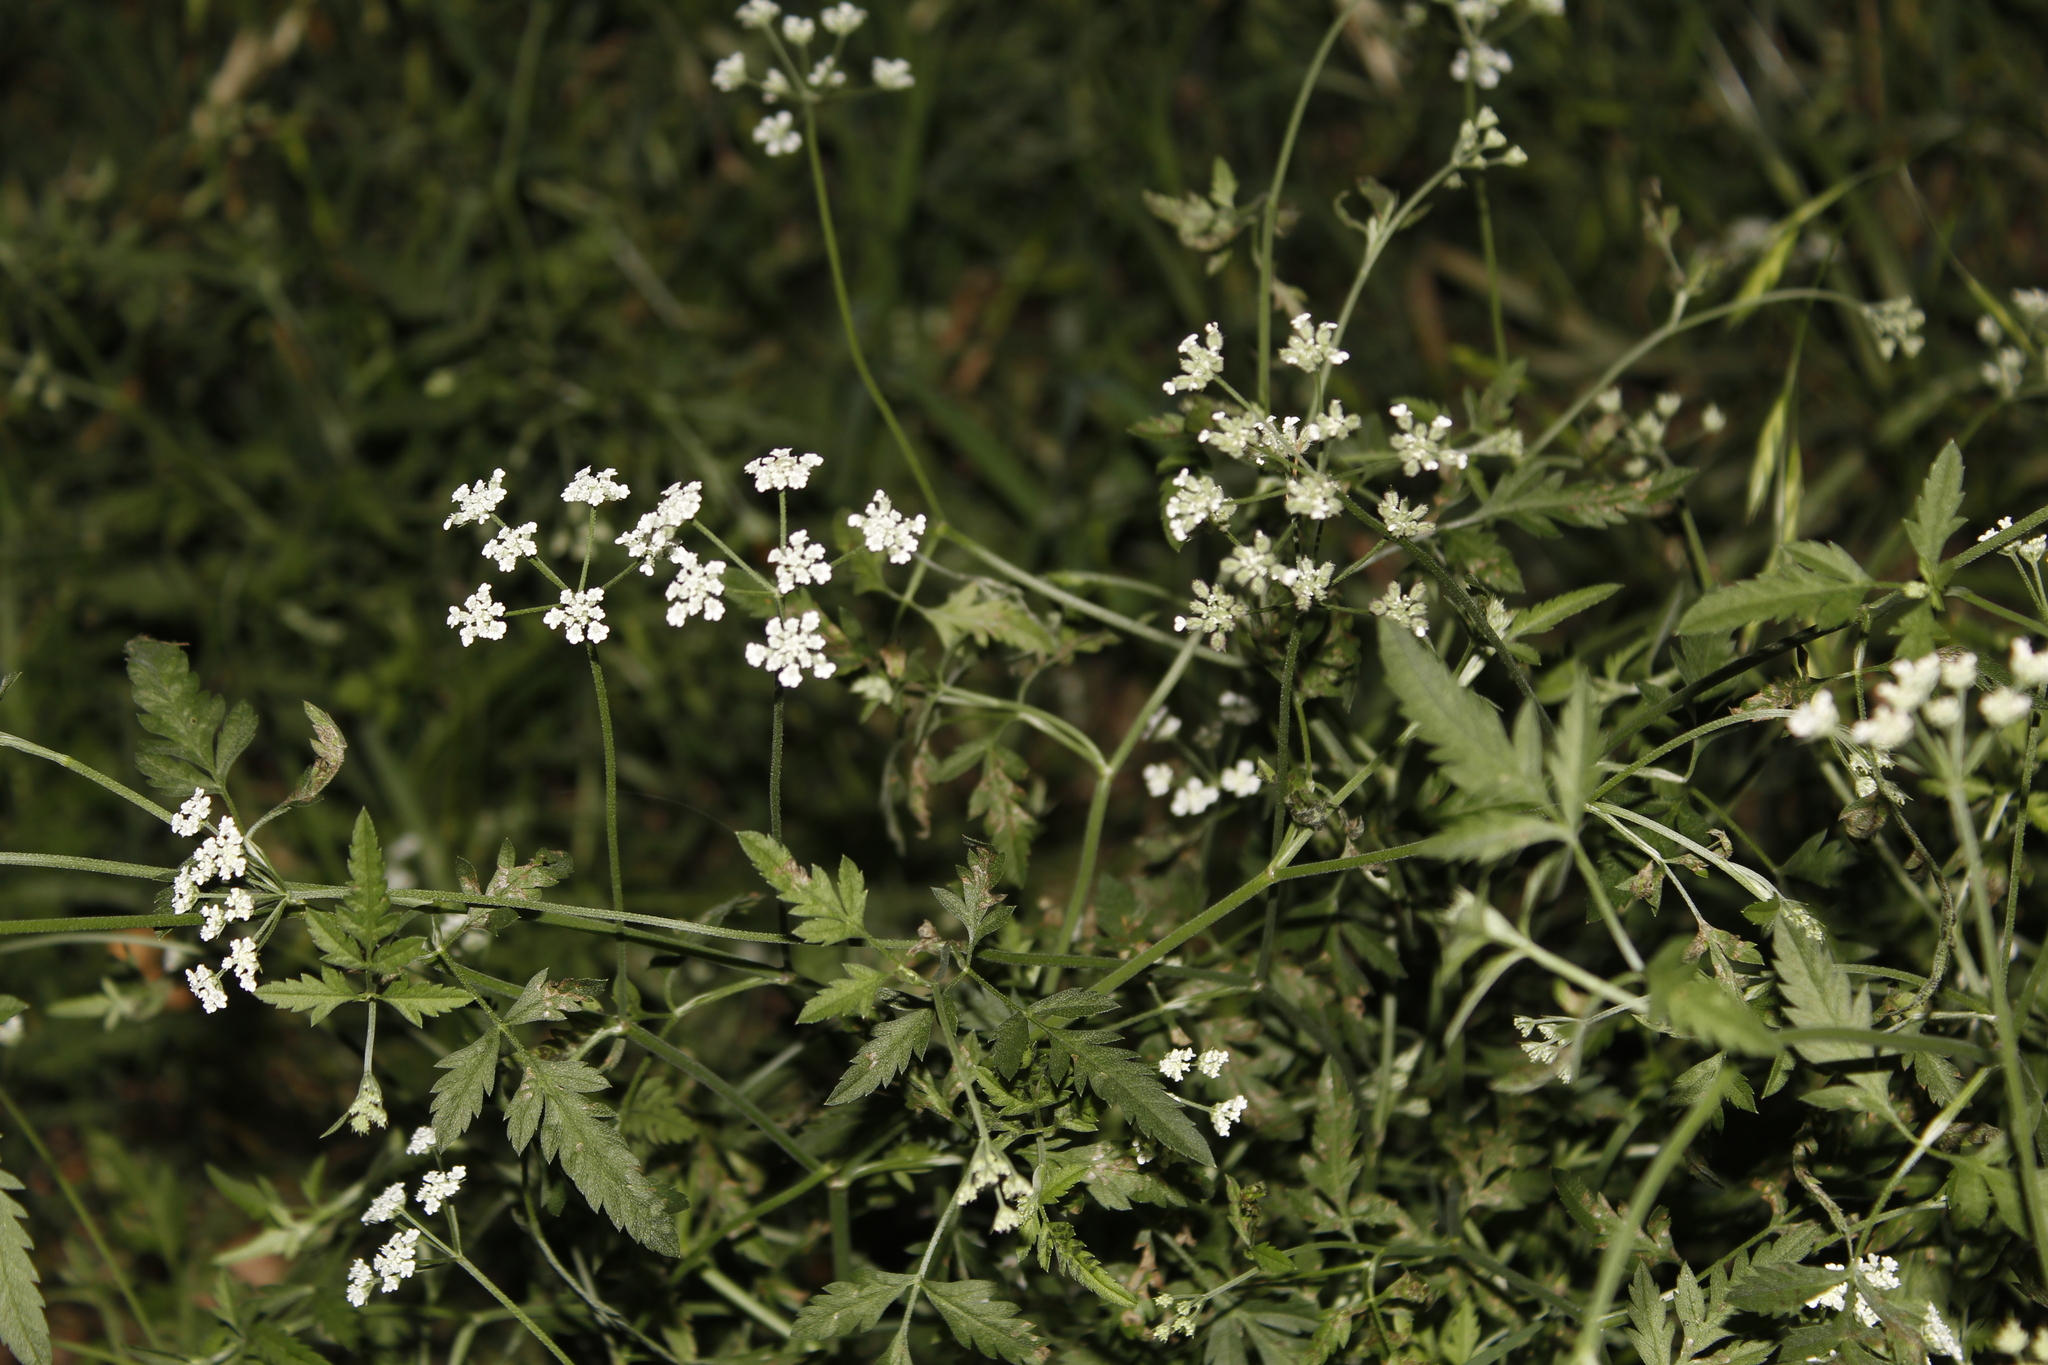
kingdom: Plantae
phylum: Tracheophyta
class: Magnoliopsida
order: Apiales
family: Apiaceae
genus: Torilis
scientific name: Torilis arvensis
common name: Spreading hedge-parsley
